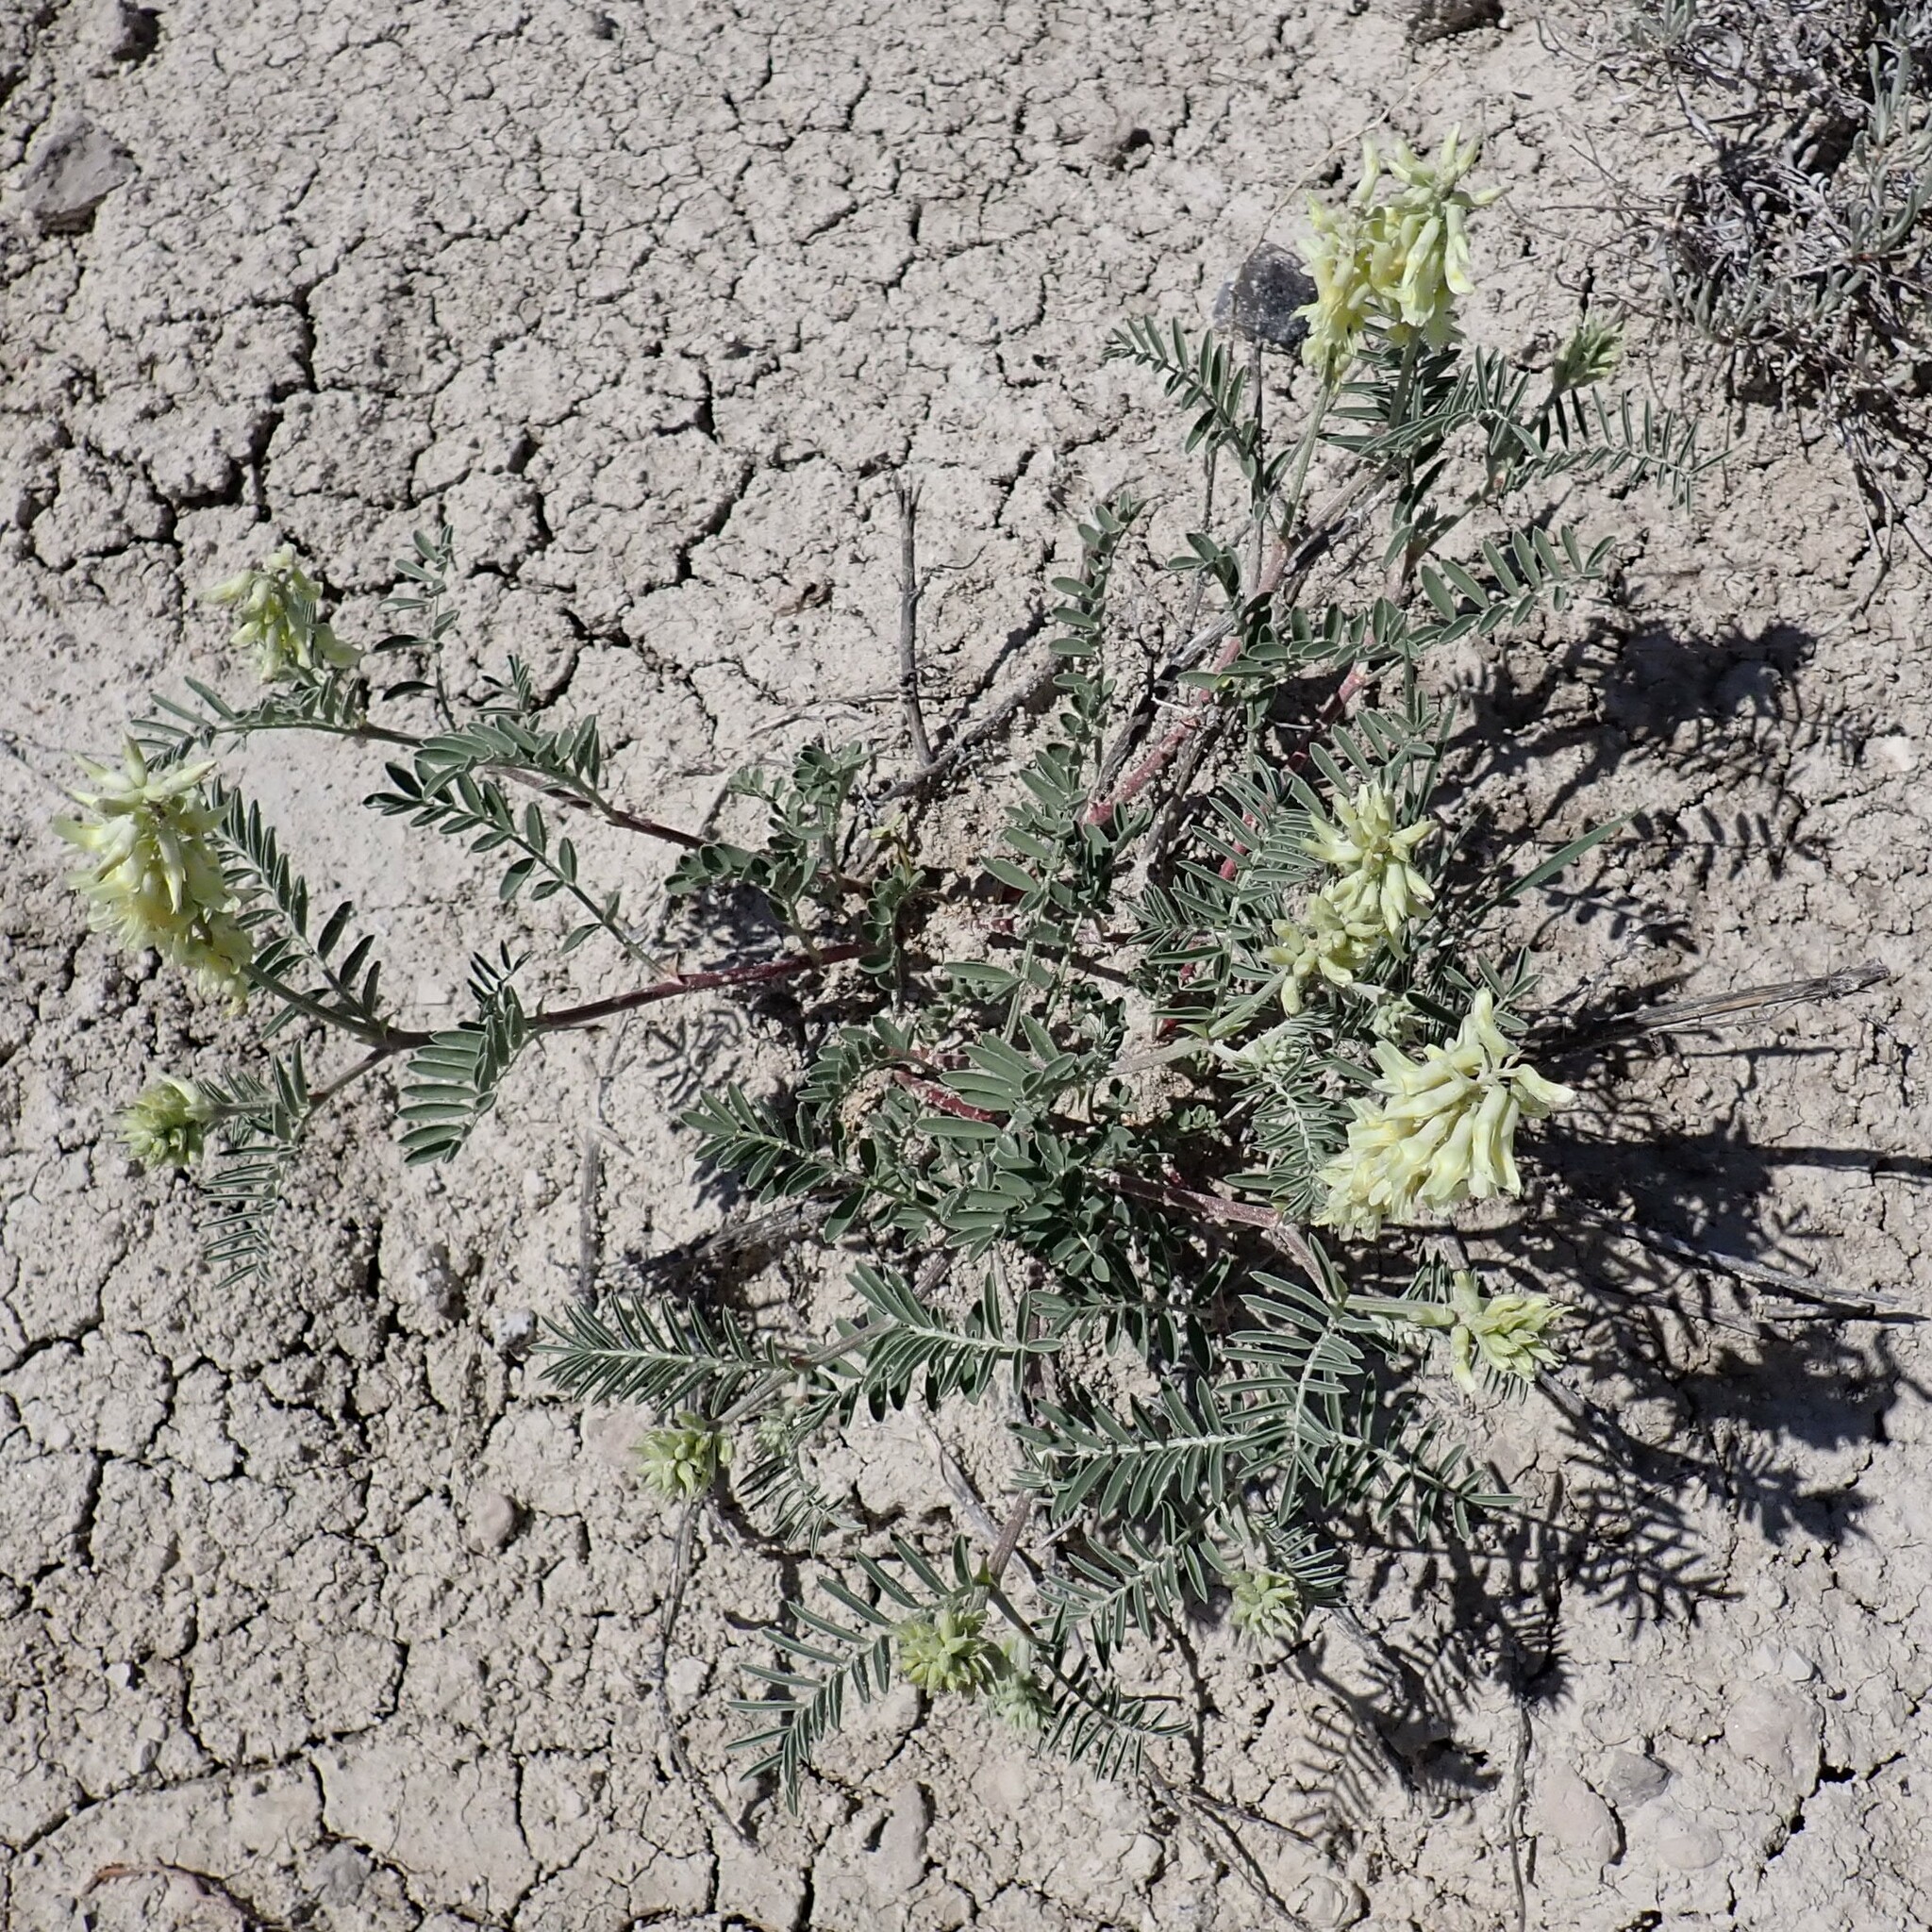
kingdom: Plantae
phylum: Tracheophyta
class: Magnoliopsida
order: Fabales
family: Fabaceae
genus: Astragalus
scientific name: Astragalus racemosus
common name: Alkali milk-vetch
